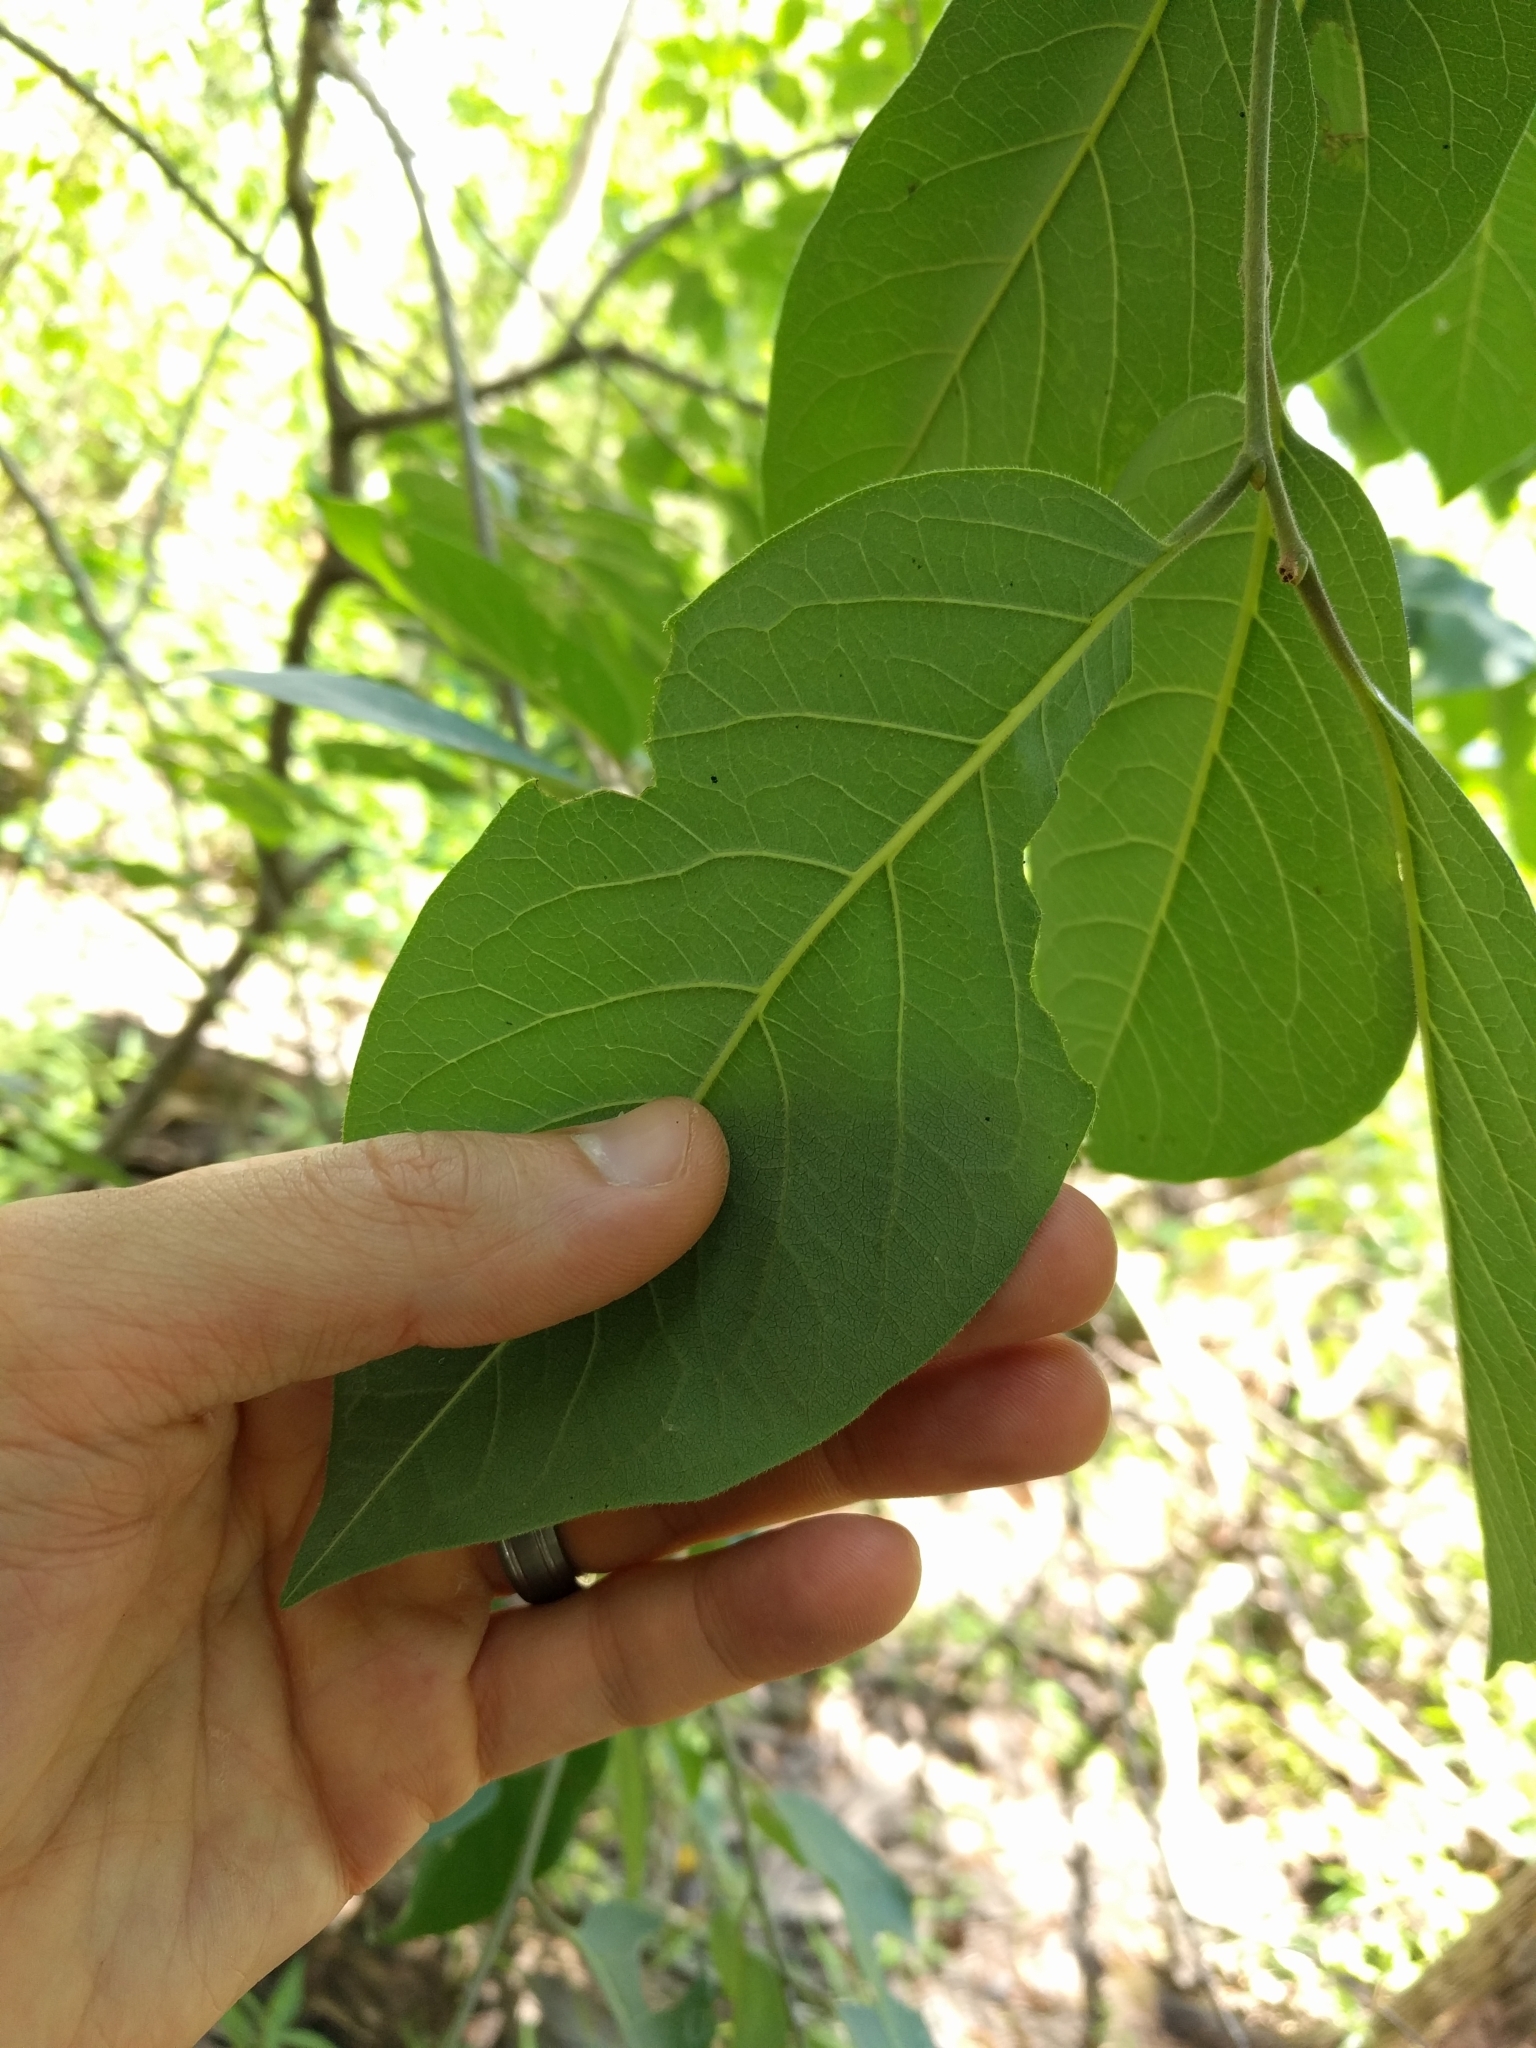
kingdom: Plantae
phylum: Tracheophyta
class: Magnoliopsida
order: Ericales
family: Ebenaceae
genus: Diospyros
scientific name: Diospyros virginiana
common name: Persimmon
